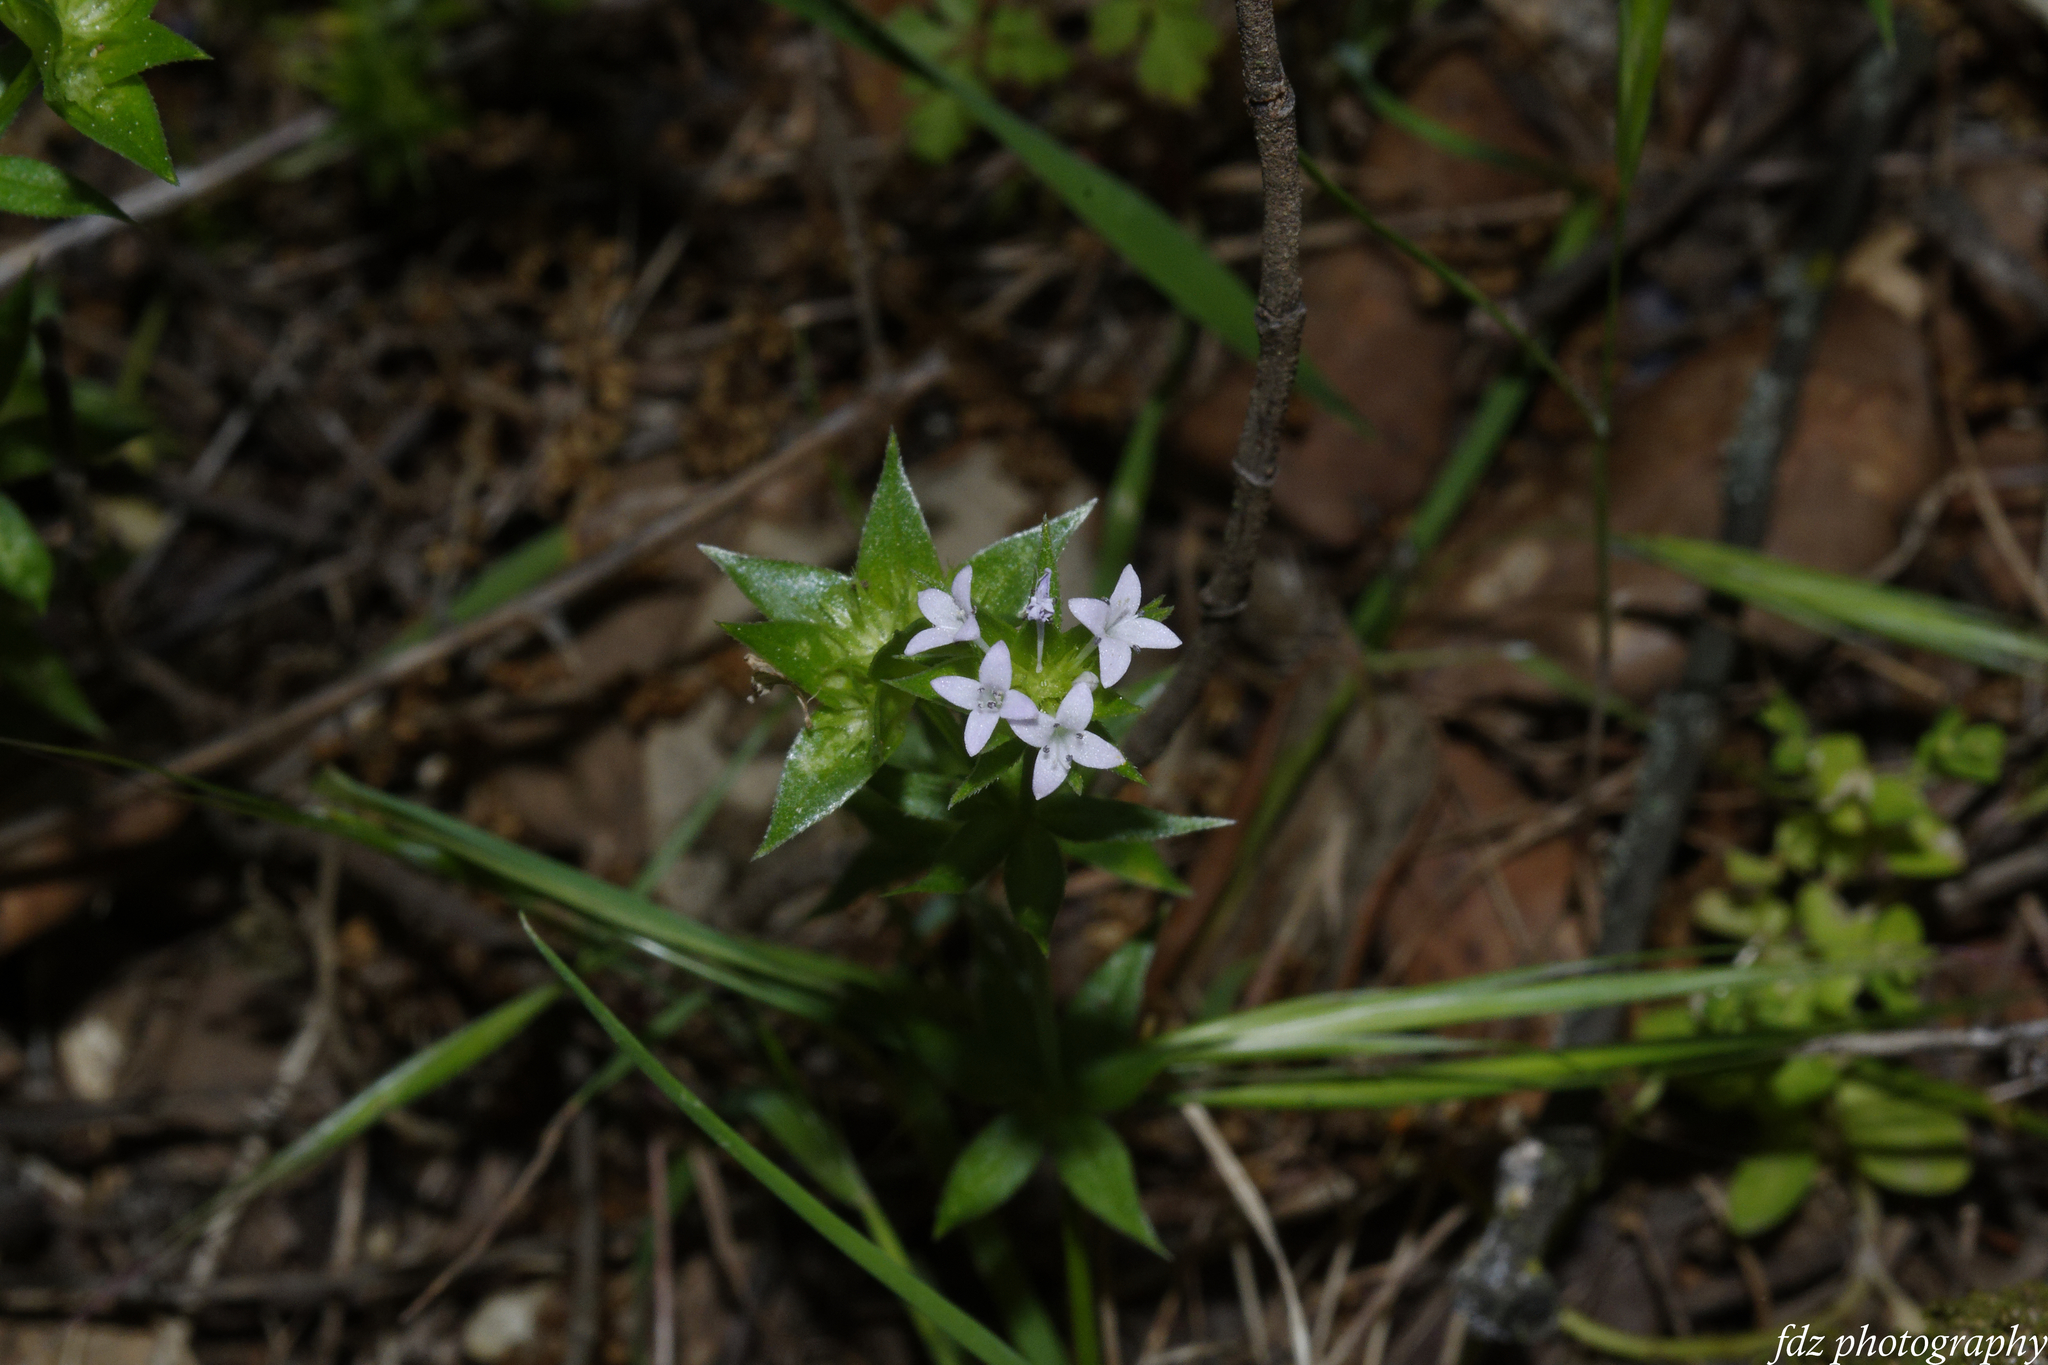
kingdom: Plantae
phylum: Tracheophyta
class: Magnoliopsida
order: Gentianales
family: Rubiaceae
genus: Sherardia
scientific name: Sherardia arvensis
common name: Field madder
